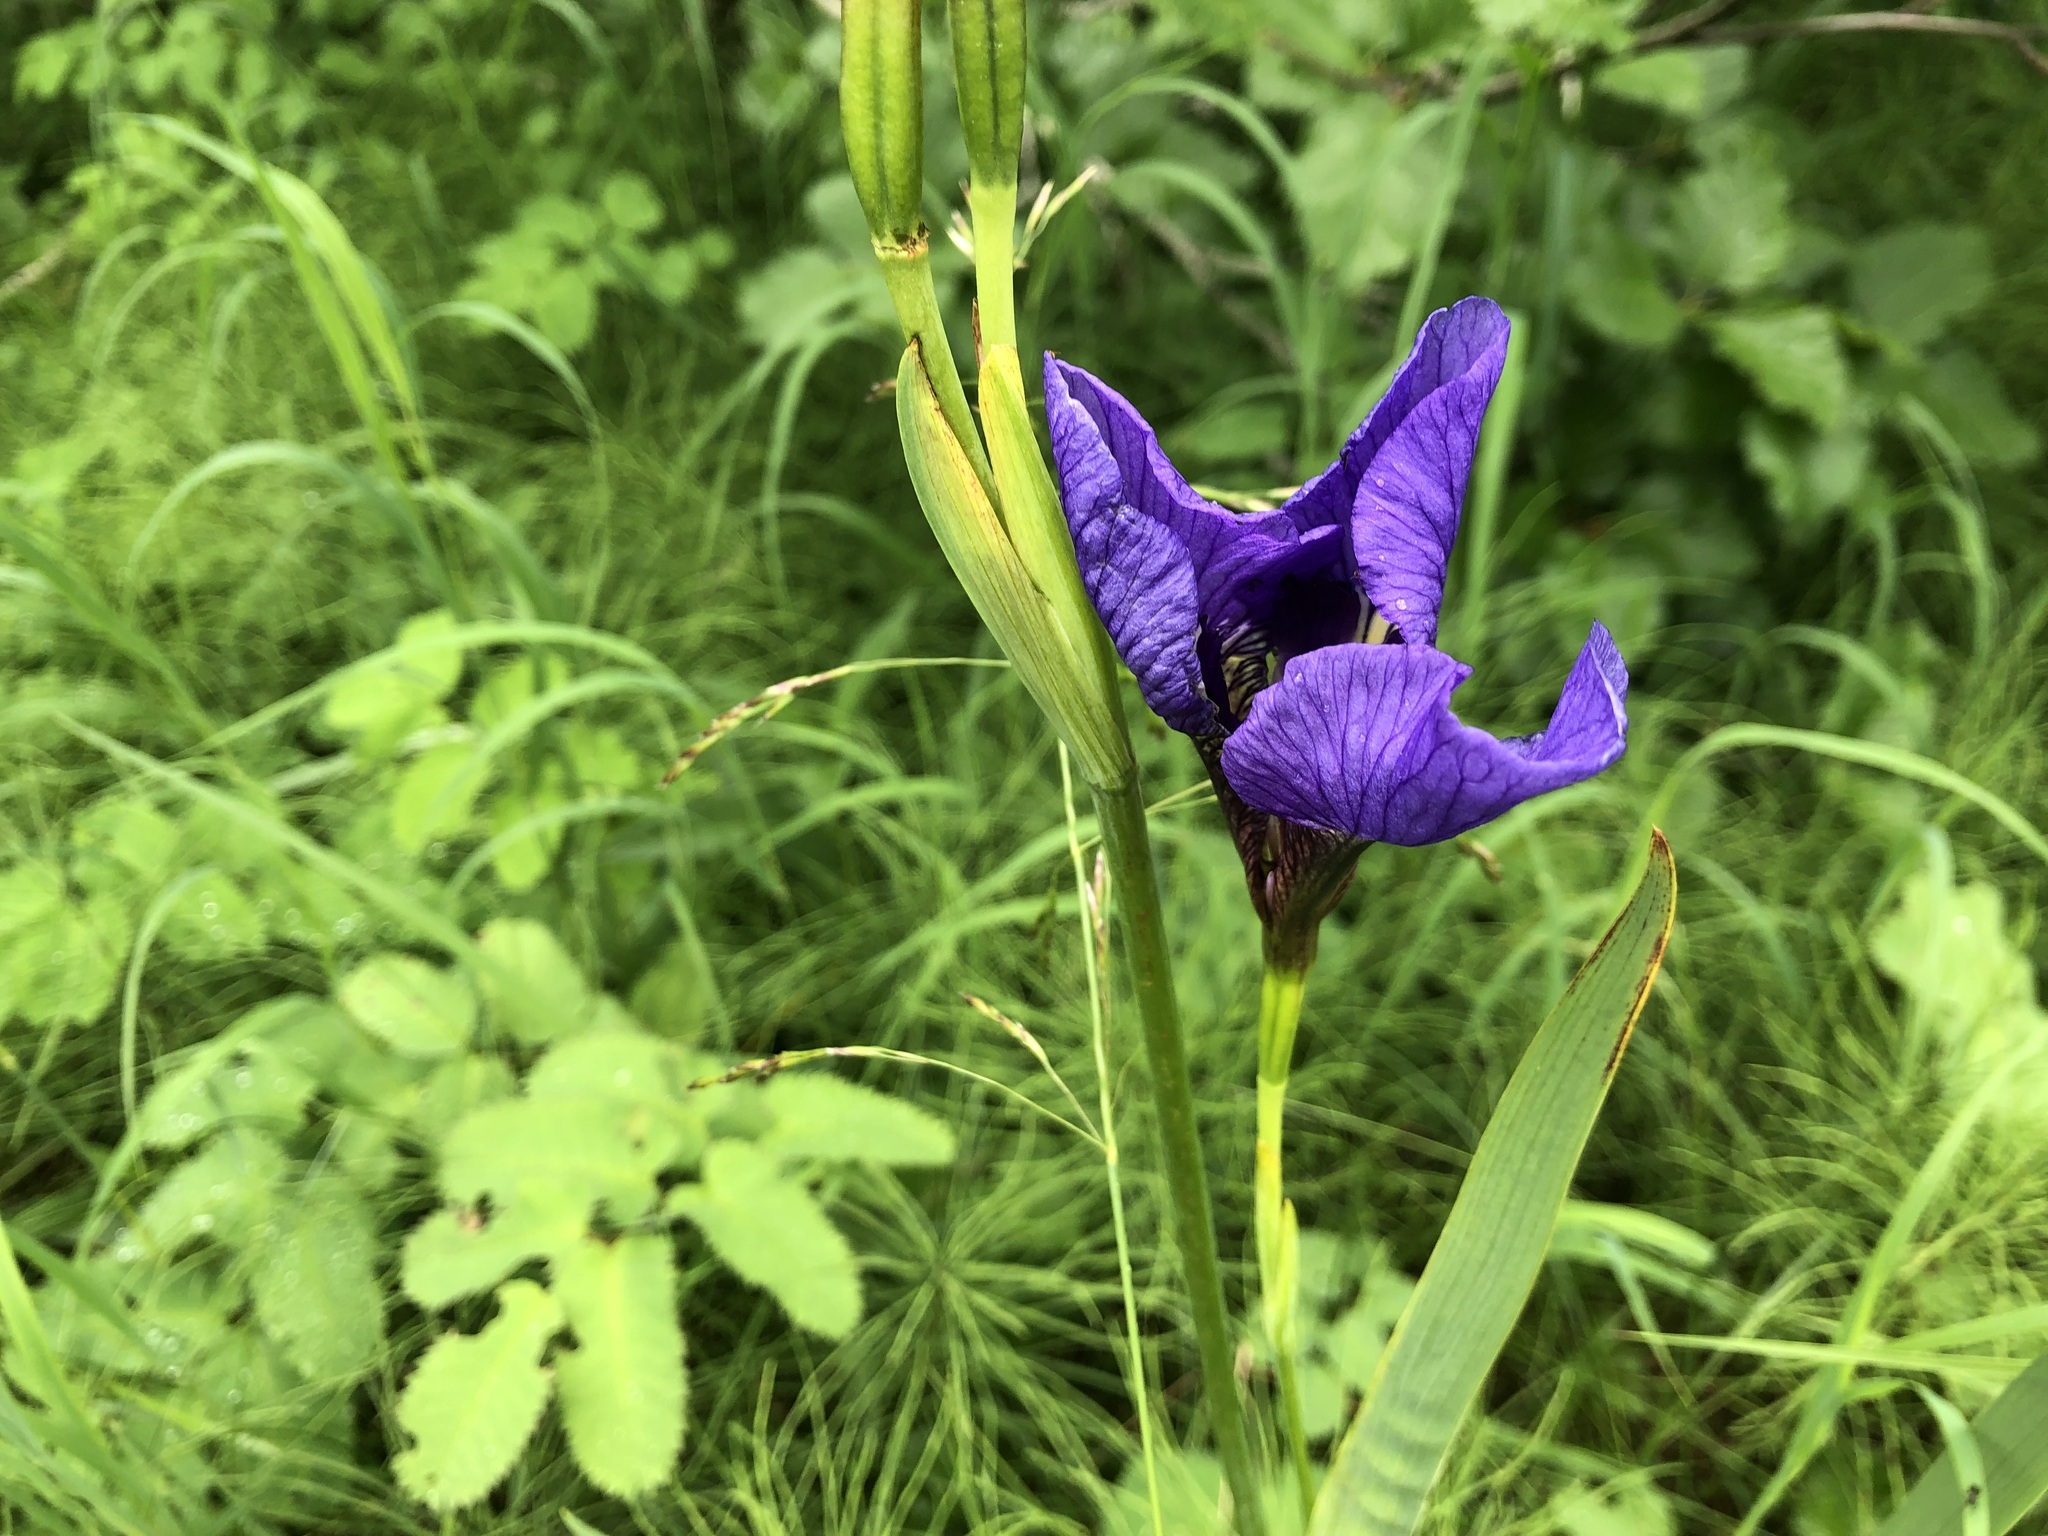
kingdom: Plantae
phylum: Tracheophyta
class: Liliopsida
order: Asparagales
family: Iridaceae
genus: Iris
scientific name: Iris setosa
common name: Arctic blue flag
